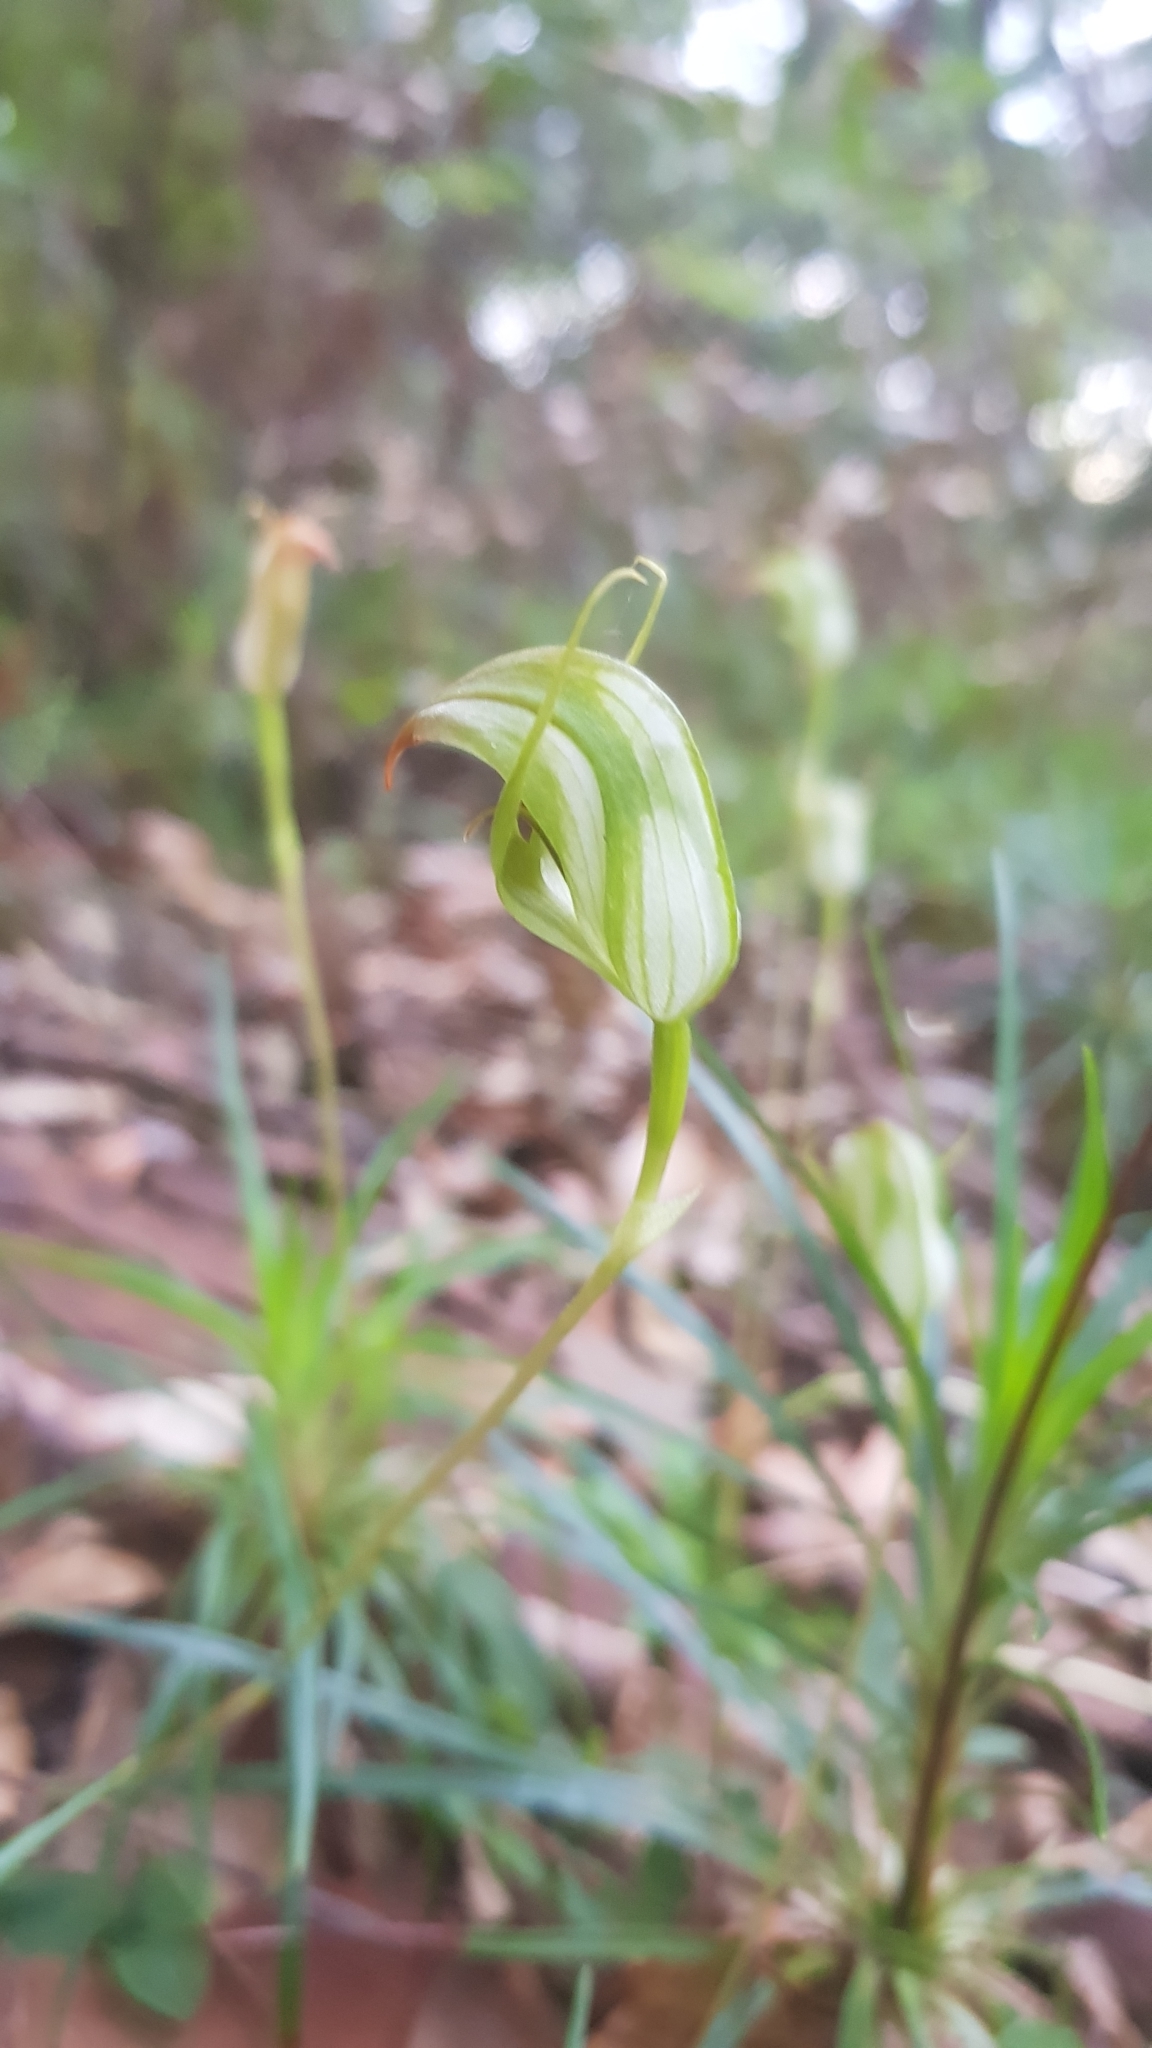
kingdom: Plantae
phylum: Tracheophyta
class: Liliopsida
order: Asparagales
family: Orchidaceae
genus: Pterostylis
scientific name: Pterostylis acuminata
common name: Pointed greenhood
